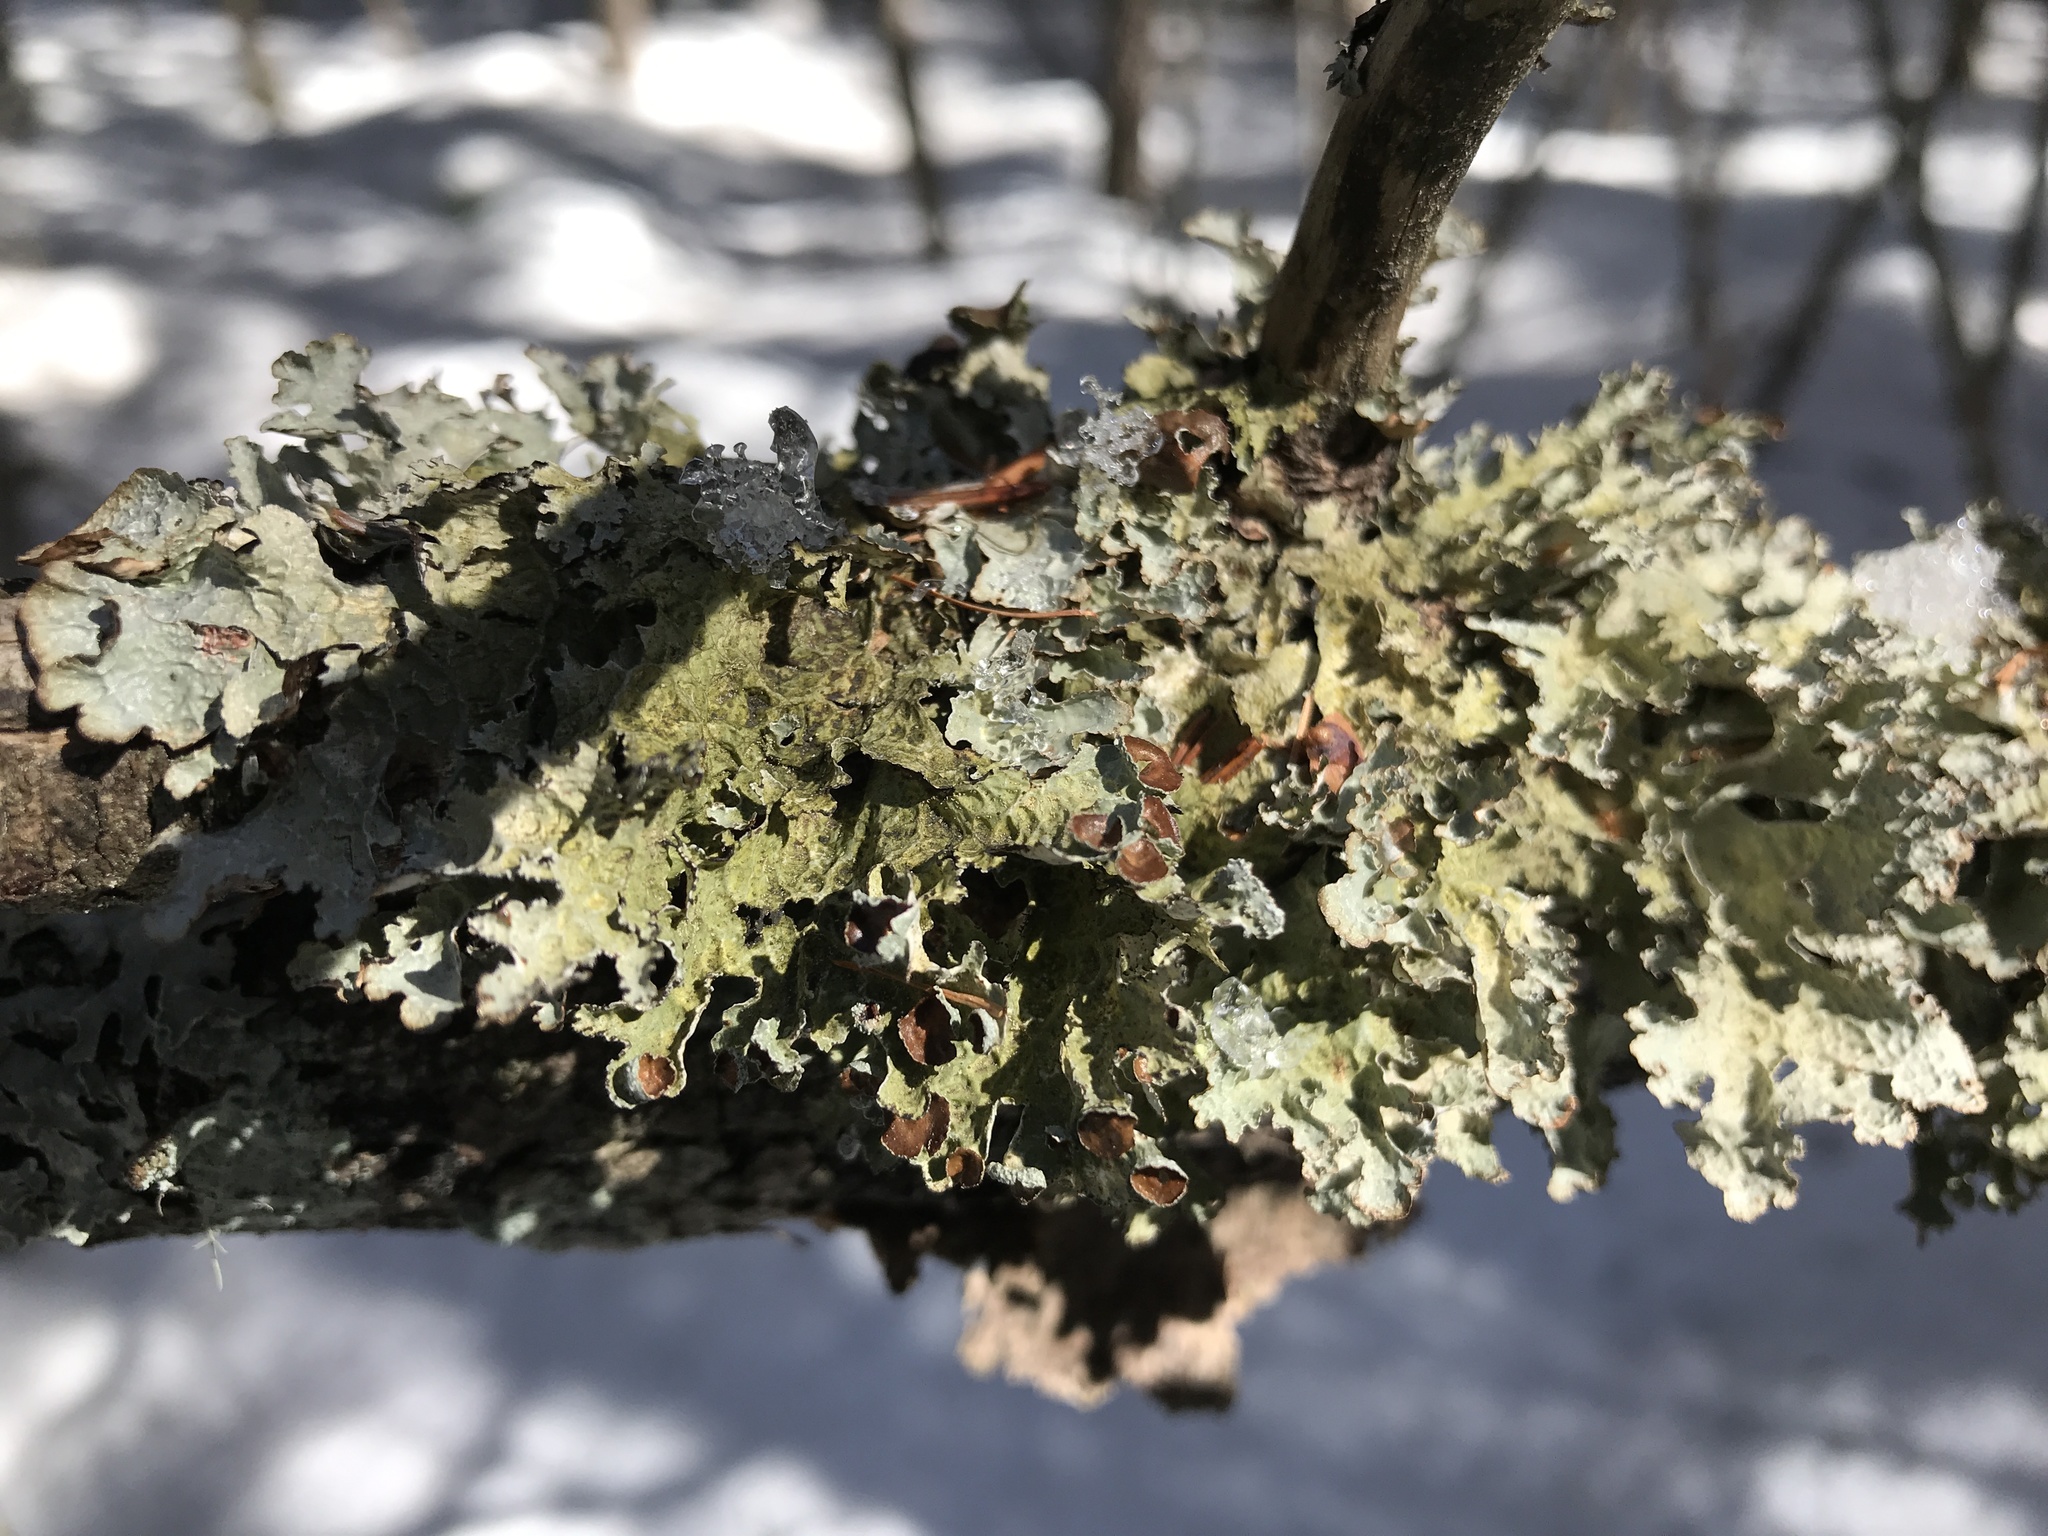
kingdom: Fungi
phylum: Ascomycota
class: Lecanoromycetes
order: Lecanorales
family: Parmeliaceae
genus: Platismatia
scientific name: Platismatia tuckermanii
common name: Crumpled rag lichen
